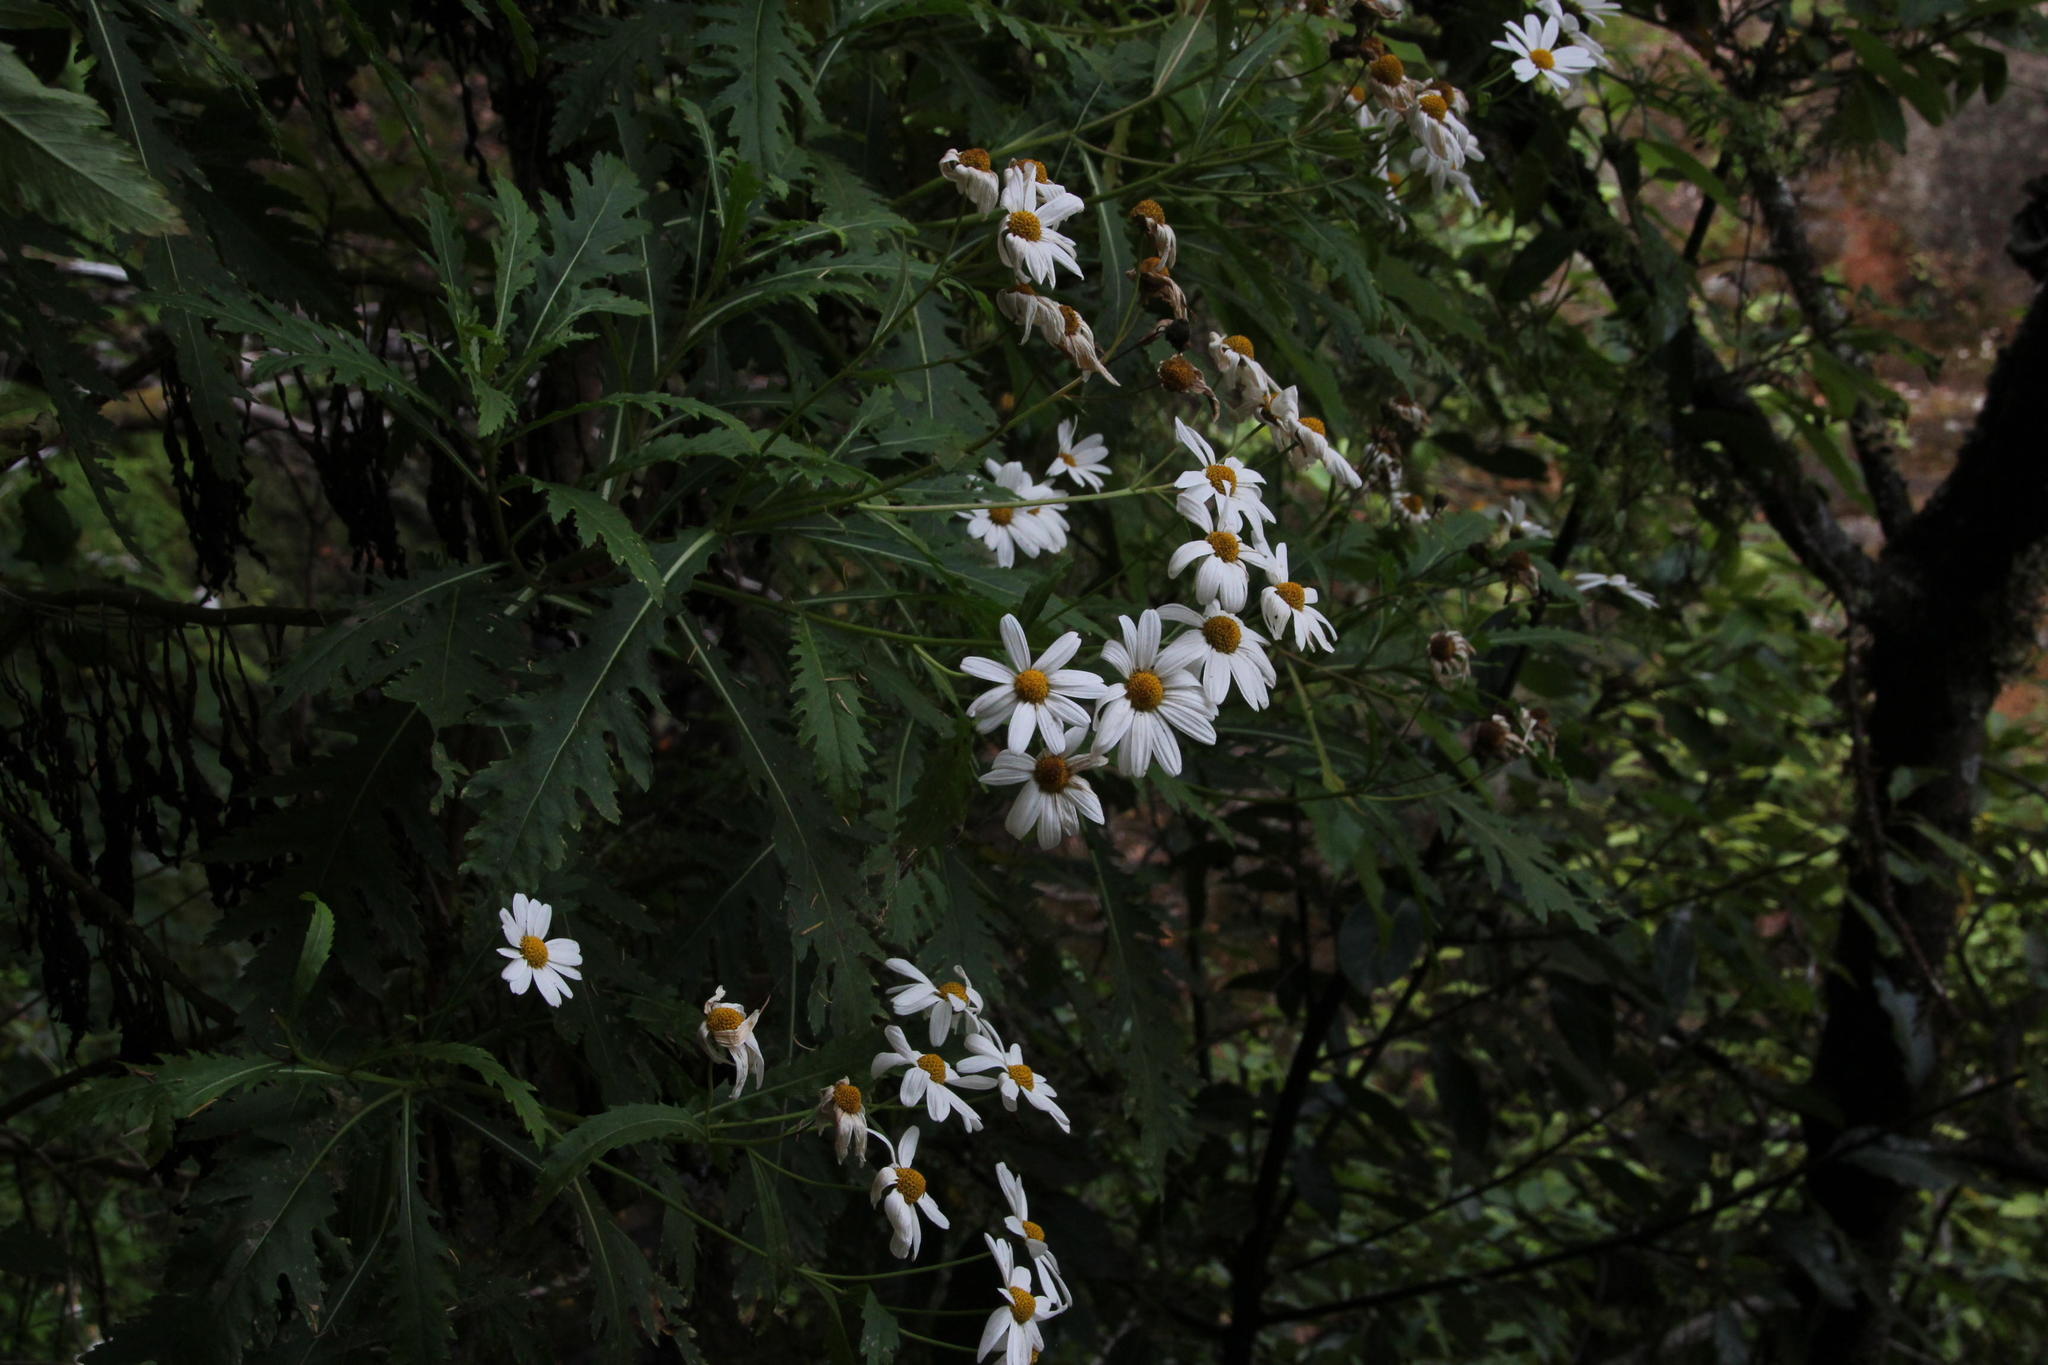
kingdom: Plantae
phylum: Tracheophyta
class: Magnoliopsida
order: Asterales
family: Asteraceae
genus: Argyranthemum
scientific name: Argyranthemum pinnatifidum
